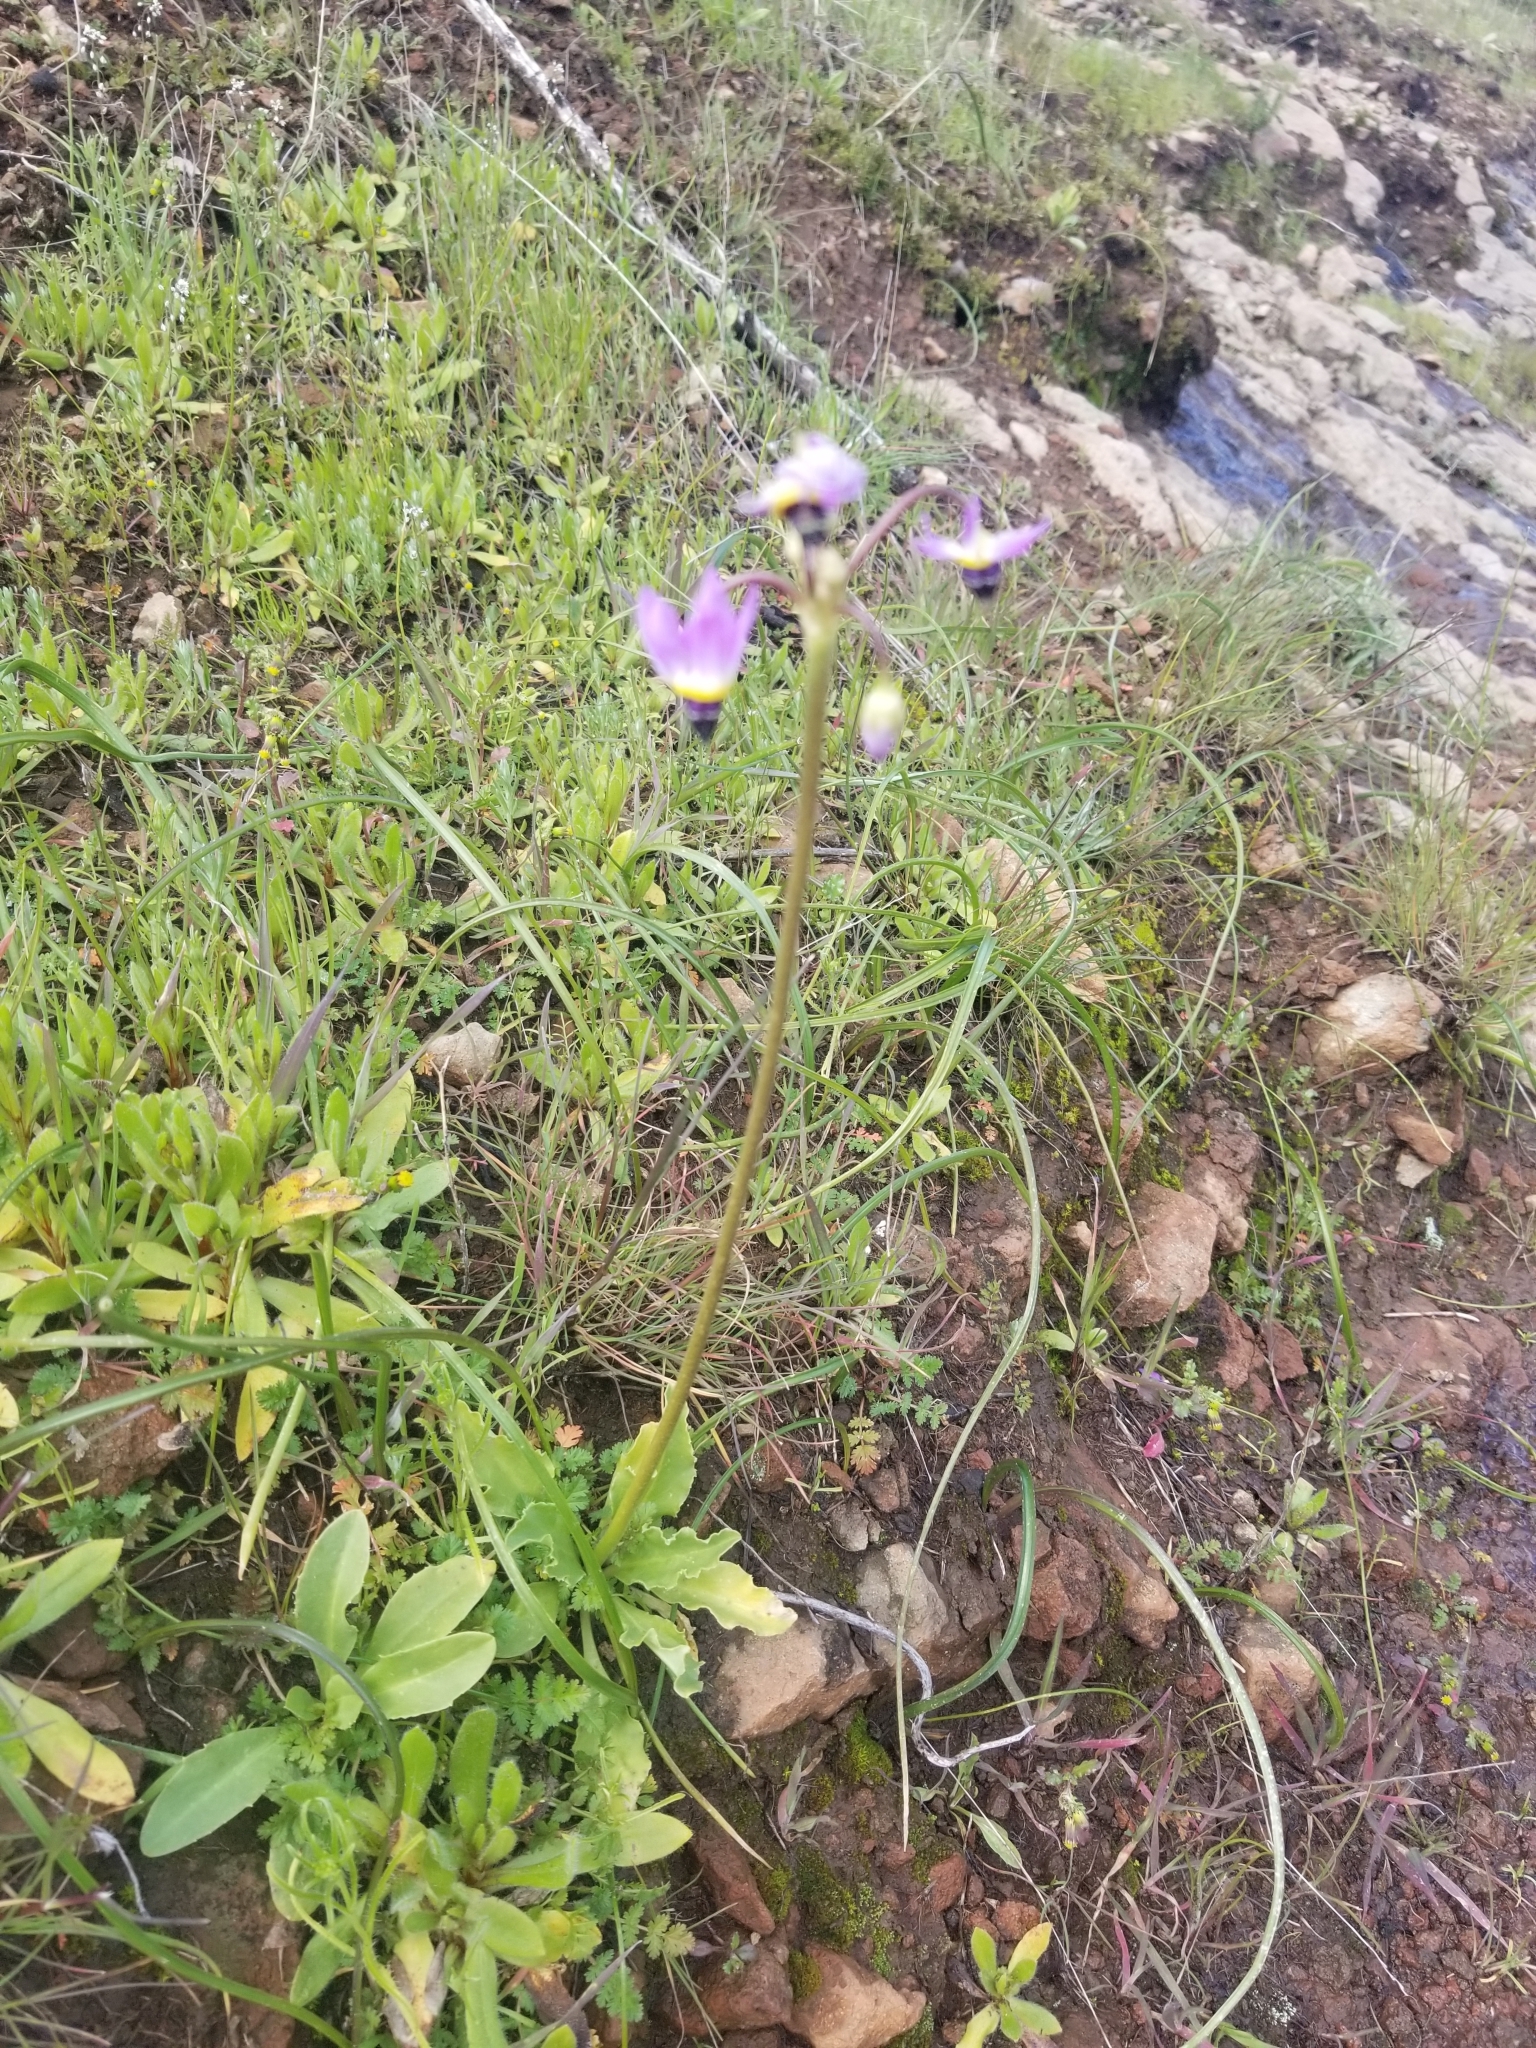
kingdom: Plantae
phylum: Tracheophyta
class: Magnoliopsida
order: Ericales
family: Primulaceae
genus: Dodecatheon
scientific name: Dodecatheon clevelandii
